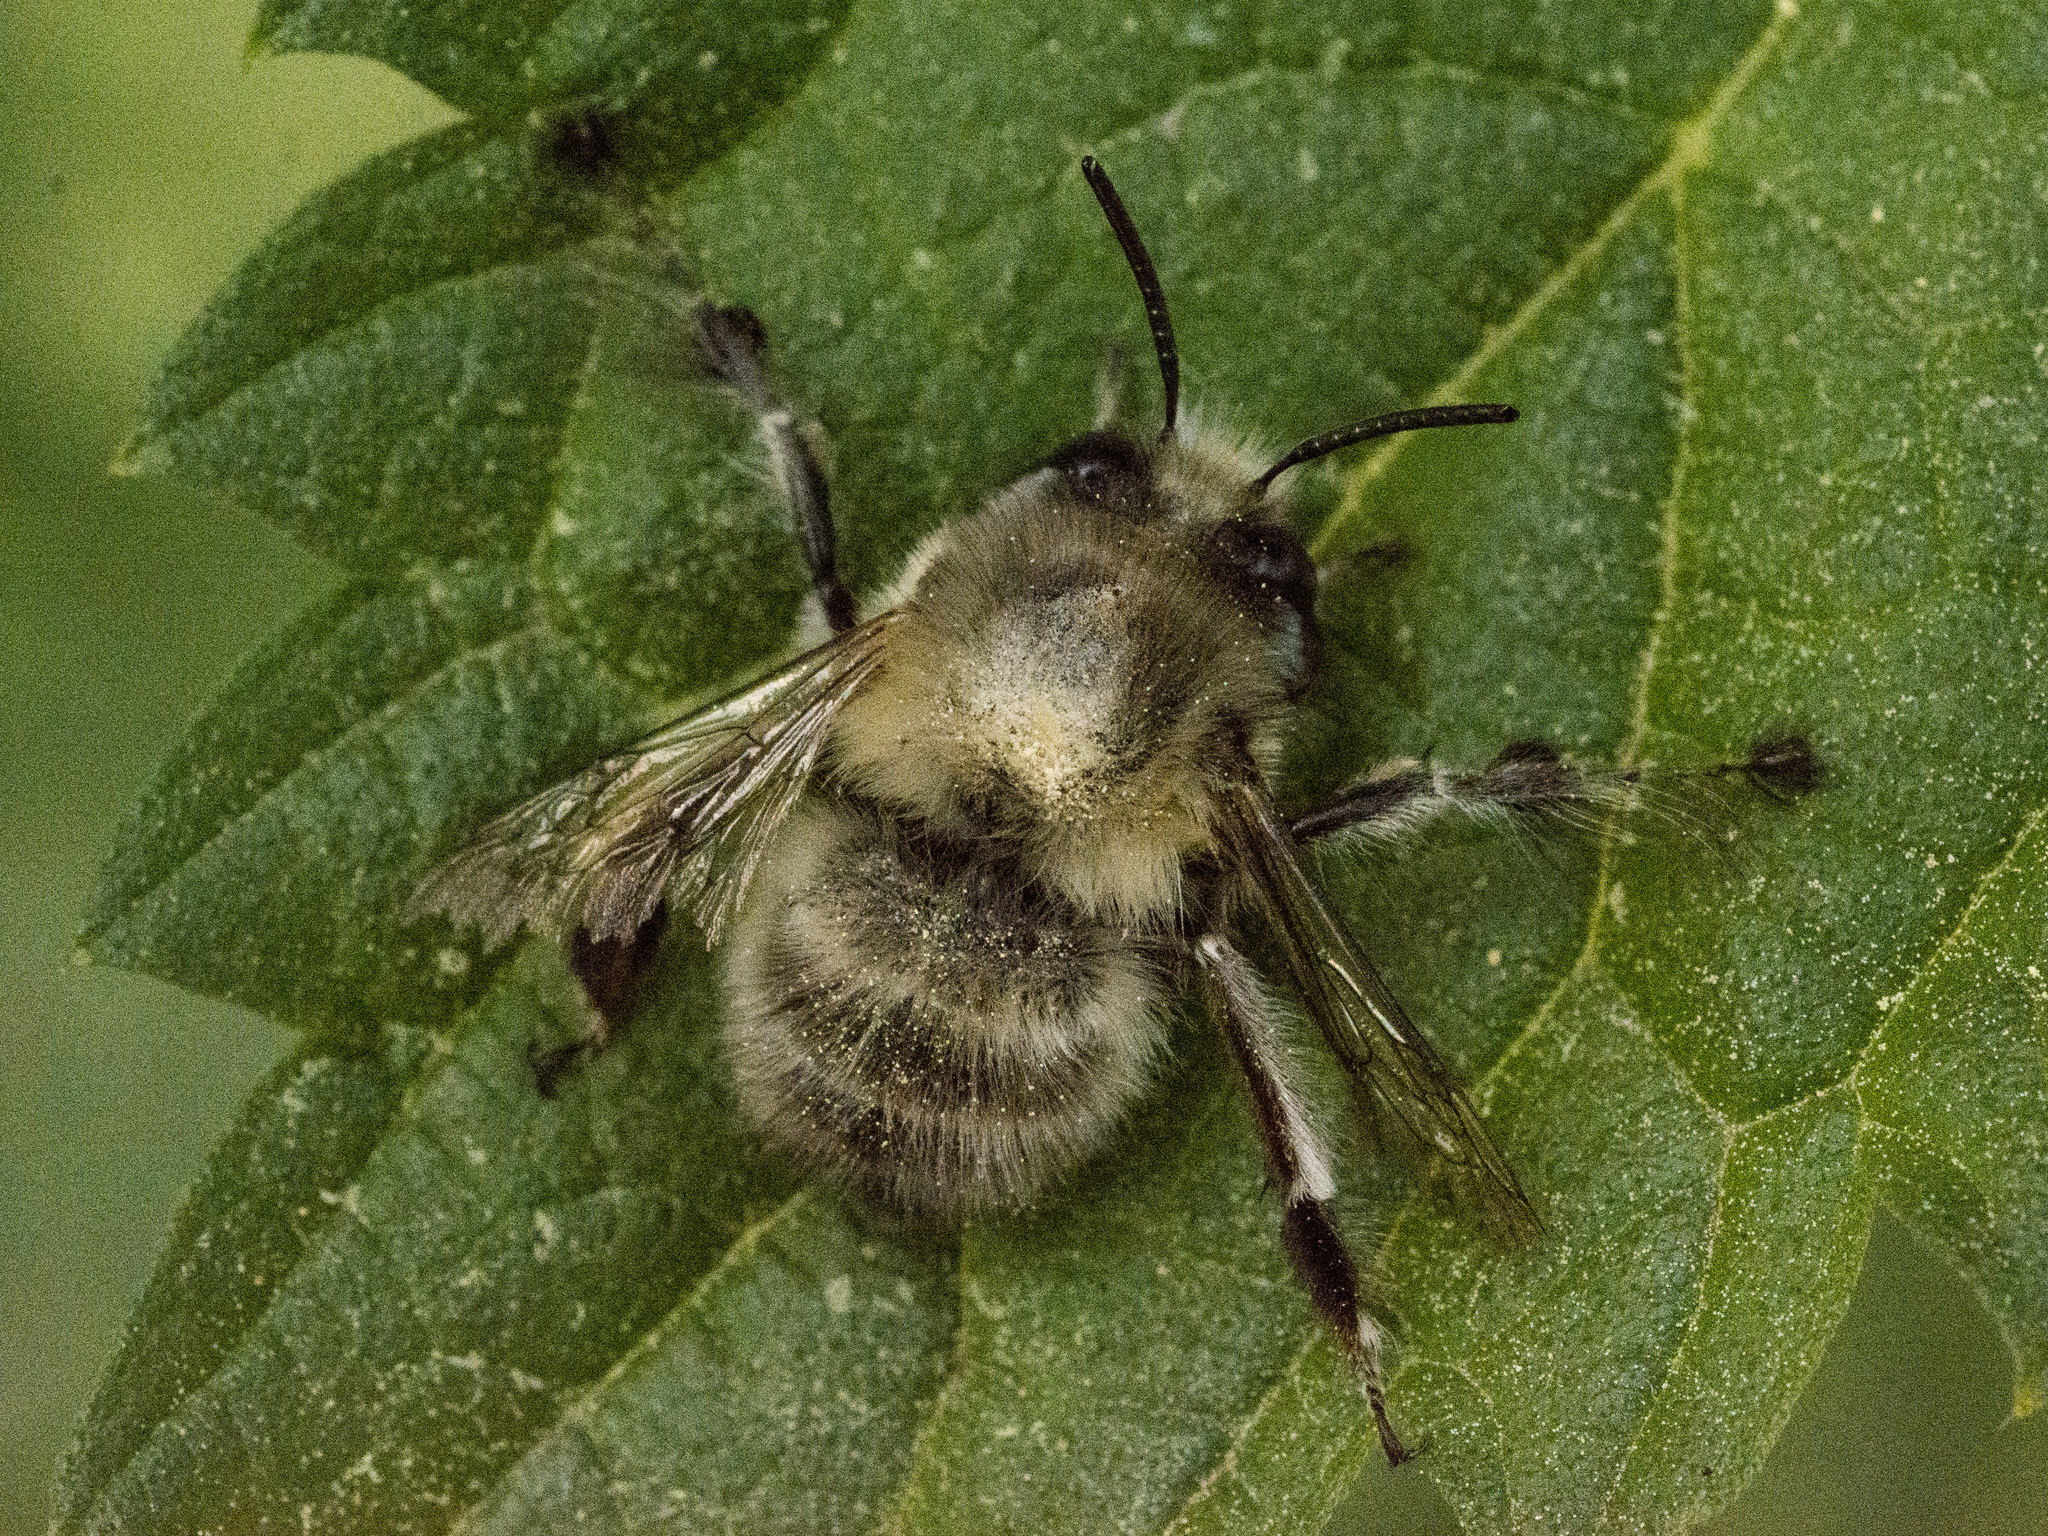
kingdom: Animalia
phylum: Arthropoda
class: Insecta
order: Hymenoptera
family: Apidae
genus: Anthophora
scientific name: Anthophora plumipes
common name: Hairy-footed flower bee
